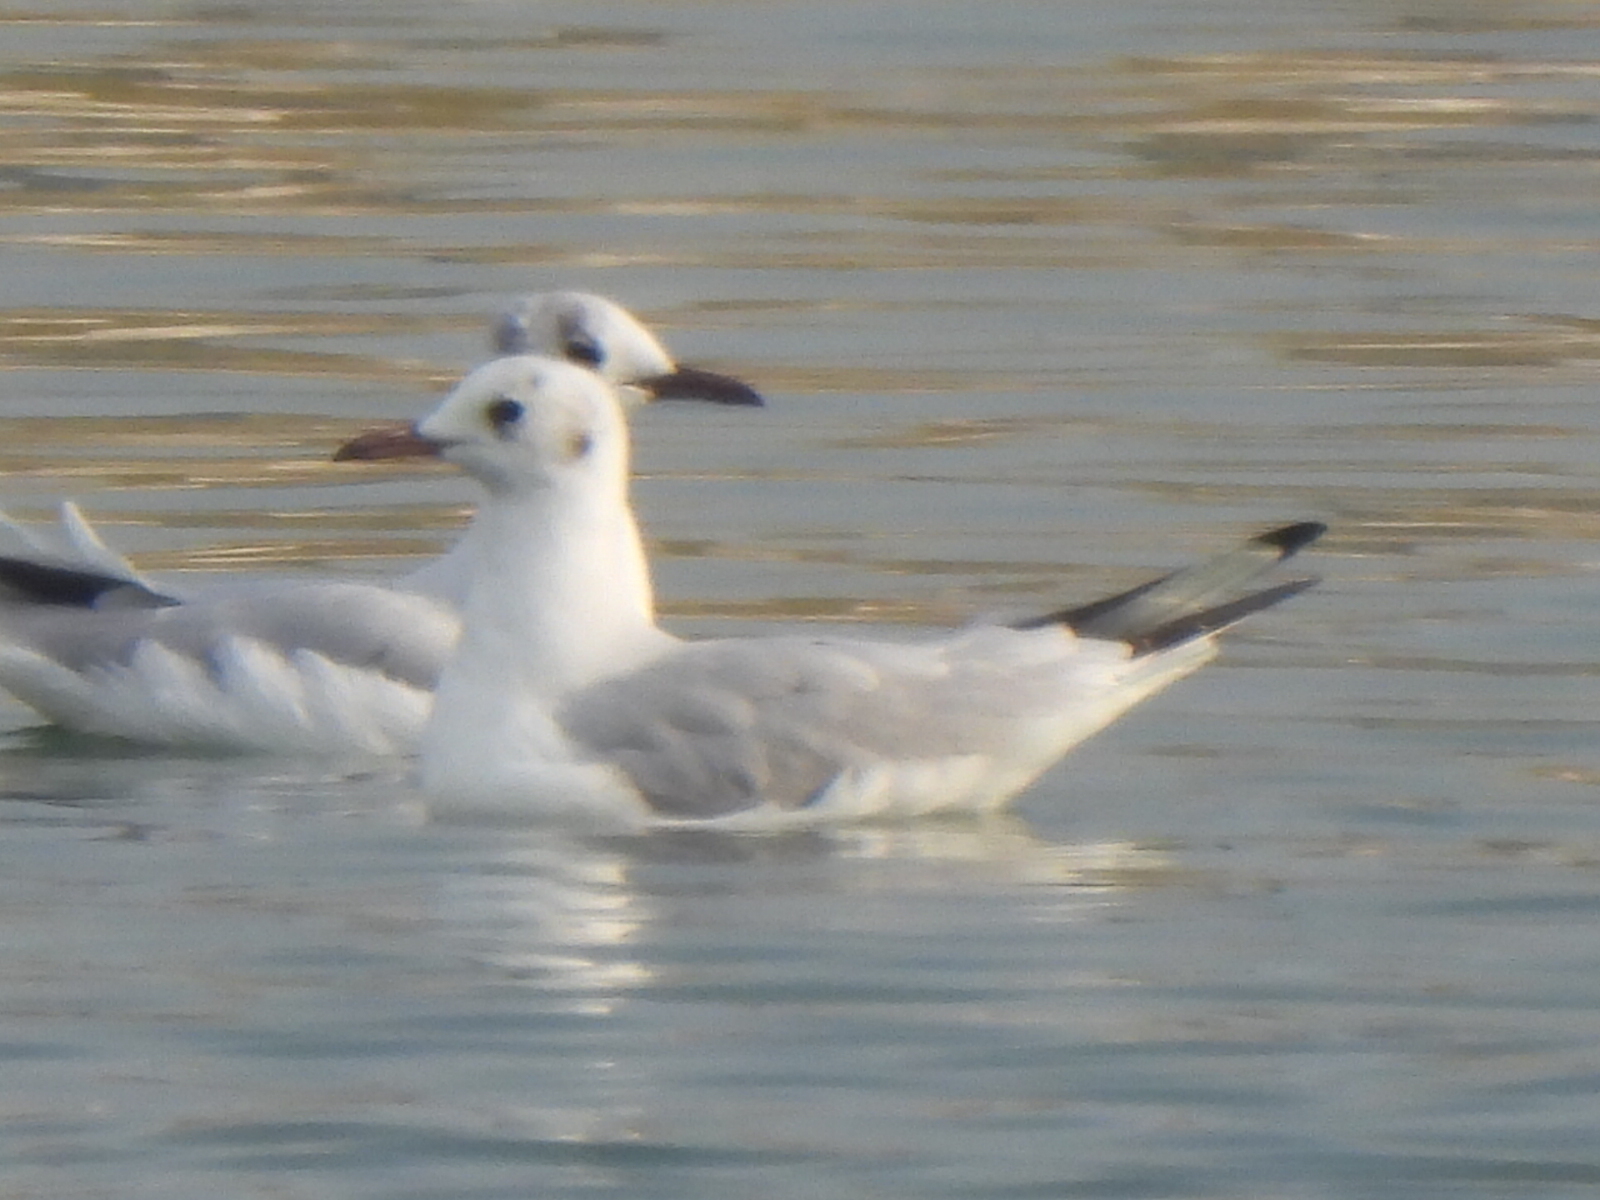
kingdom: Animalia
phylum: Chordata
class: Aves
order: Charadriiformes
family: Laridae
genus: Chroicocephalus
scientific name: Chroicocephalus ridibundus
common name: Black-headed gull
